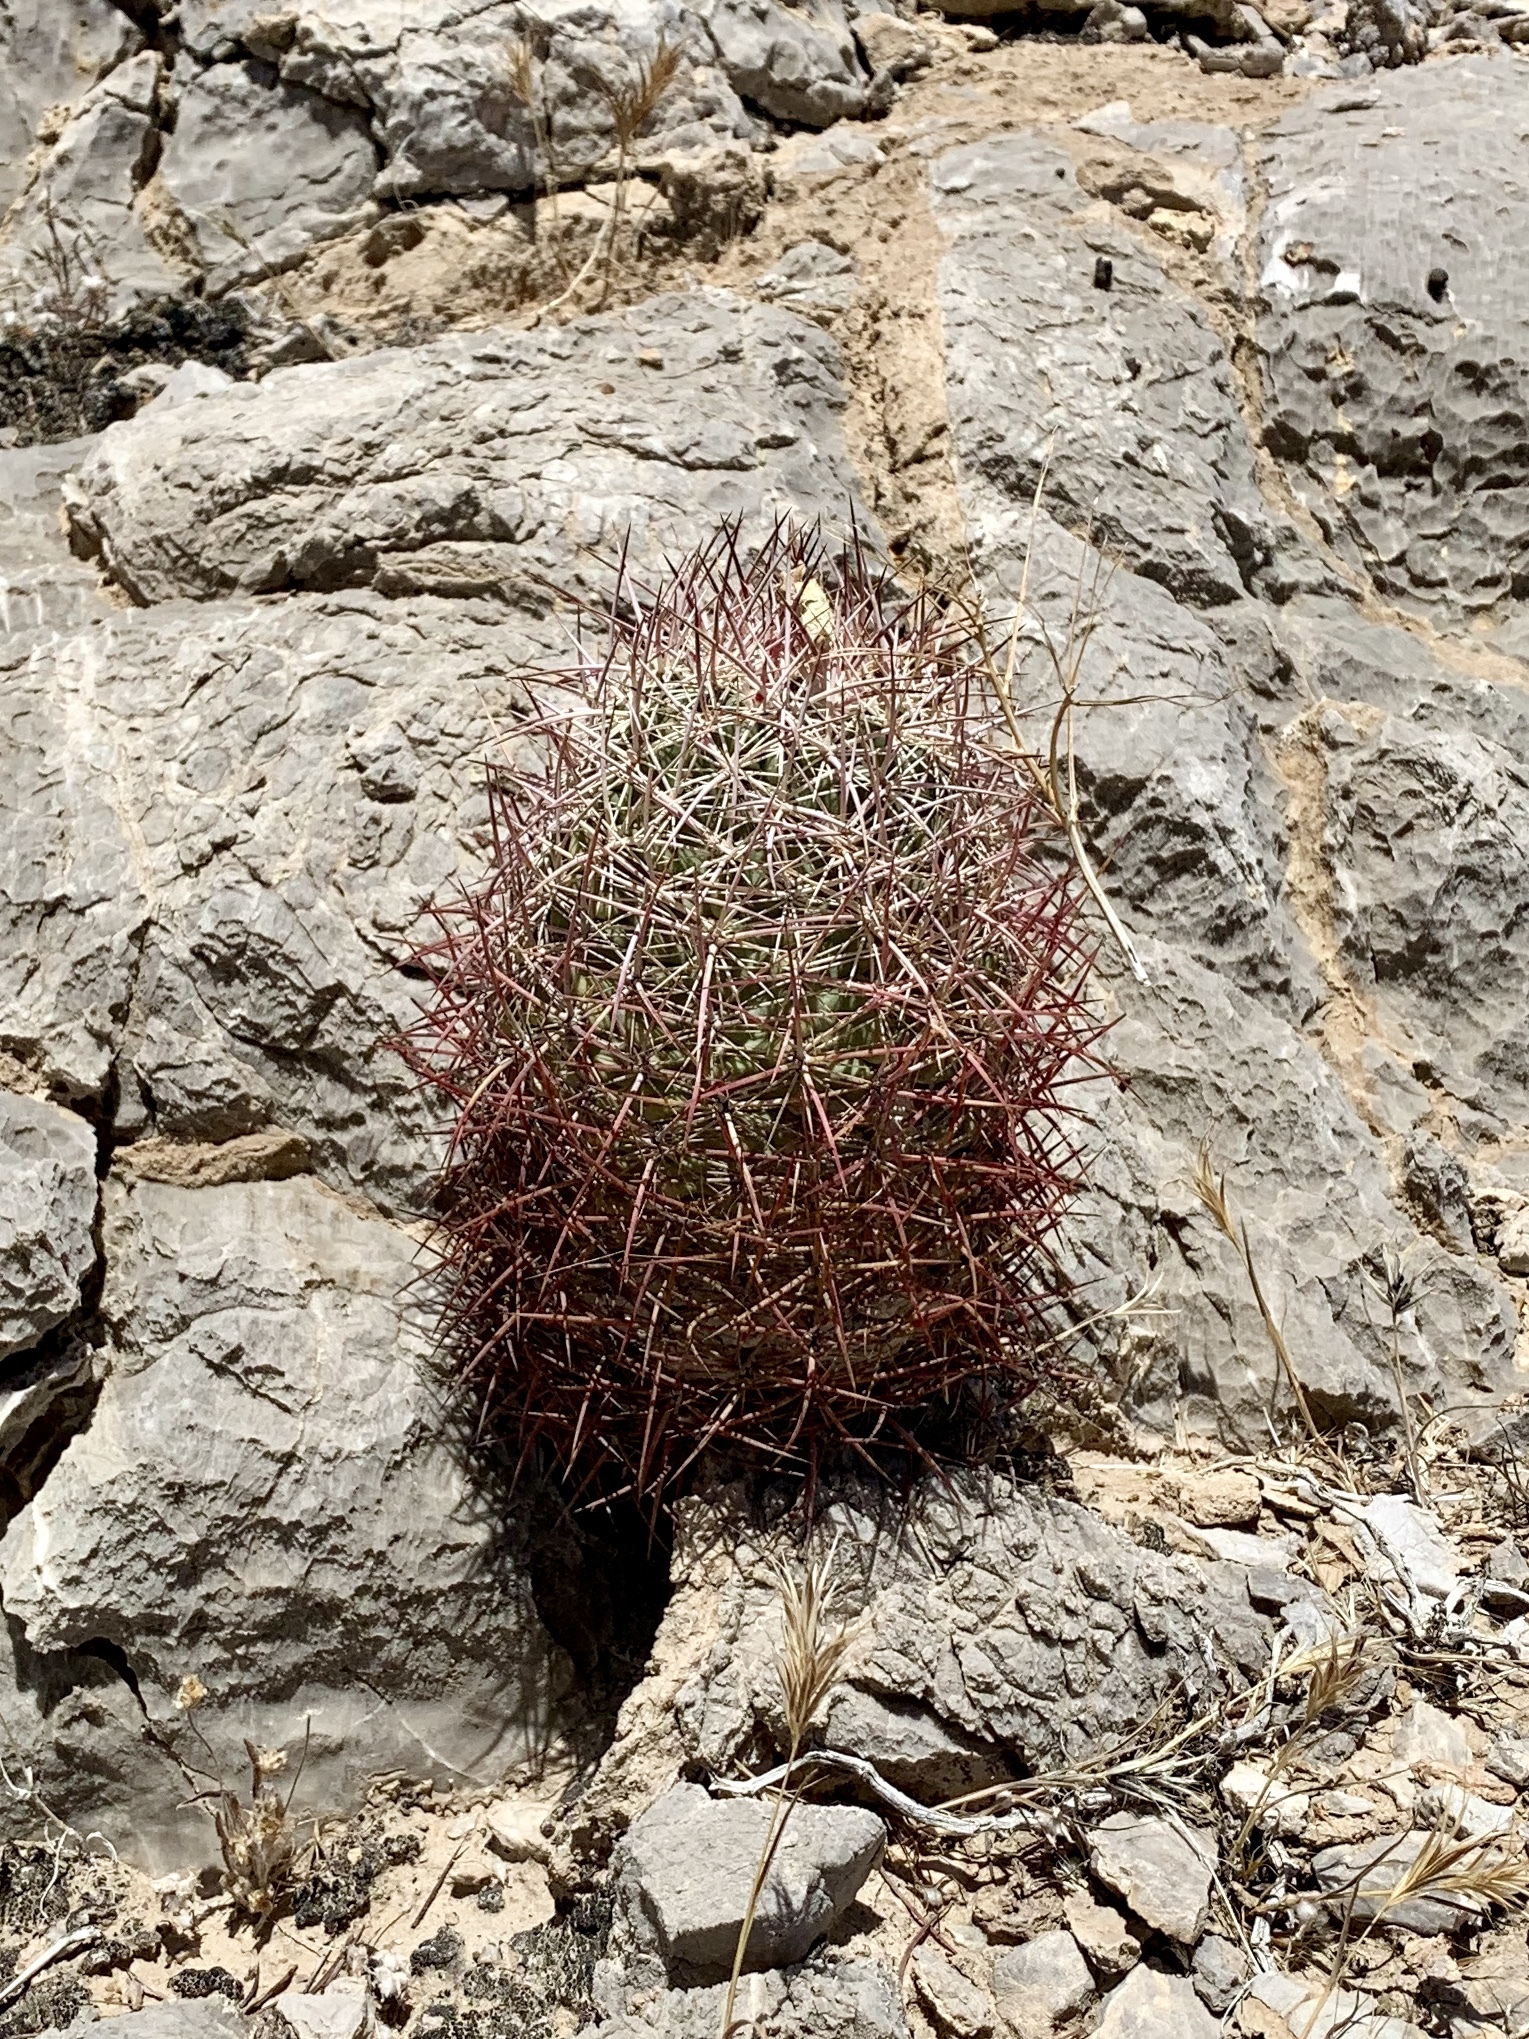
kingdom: Plantae
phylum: Tracheophyta
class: Magnoliopsida
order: Caryophyllales
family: Cactaceae
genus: Sclerocactus
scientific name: Sclerocactus johnsonii
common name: Eight-spine fishhook cactus
